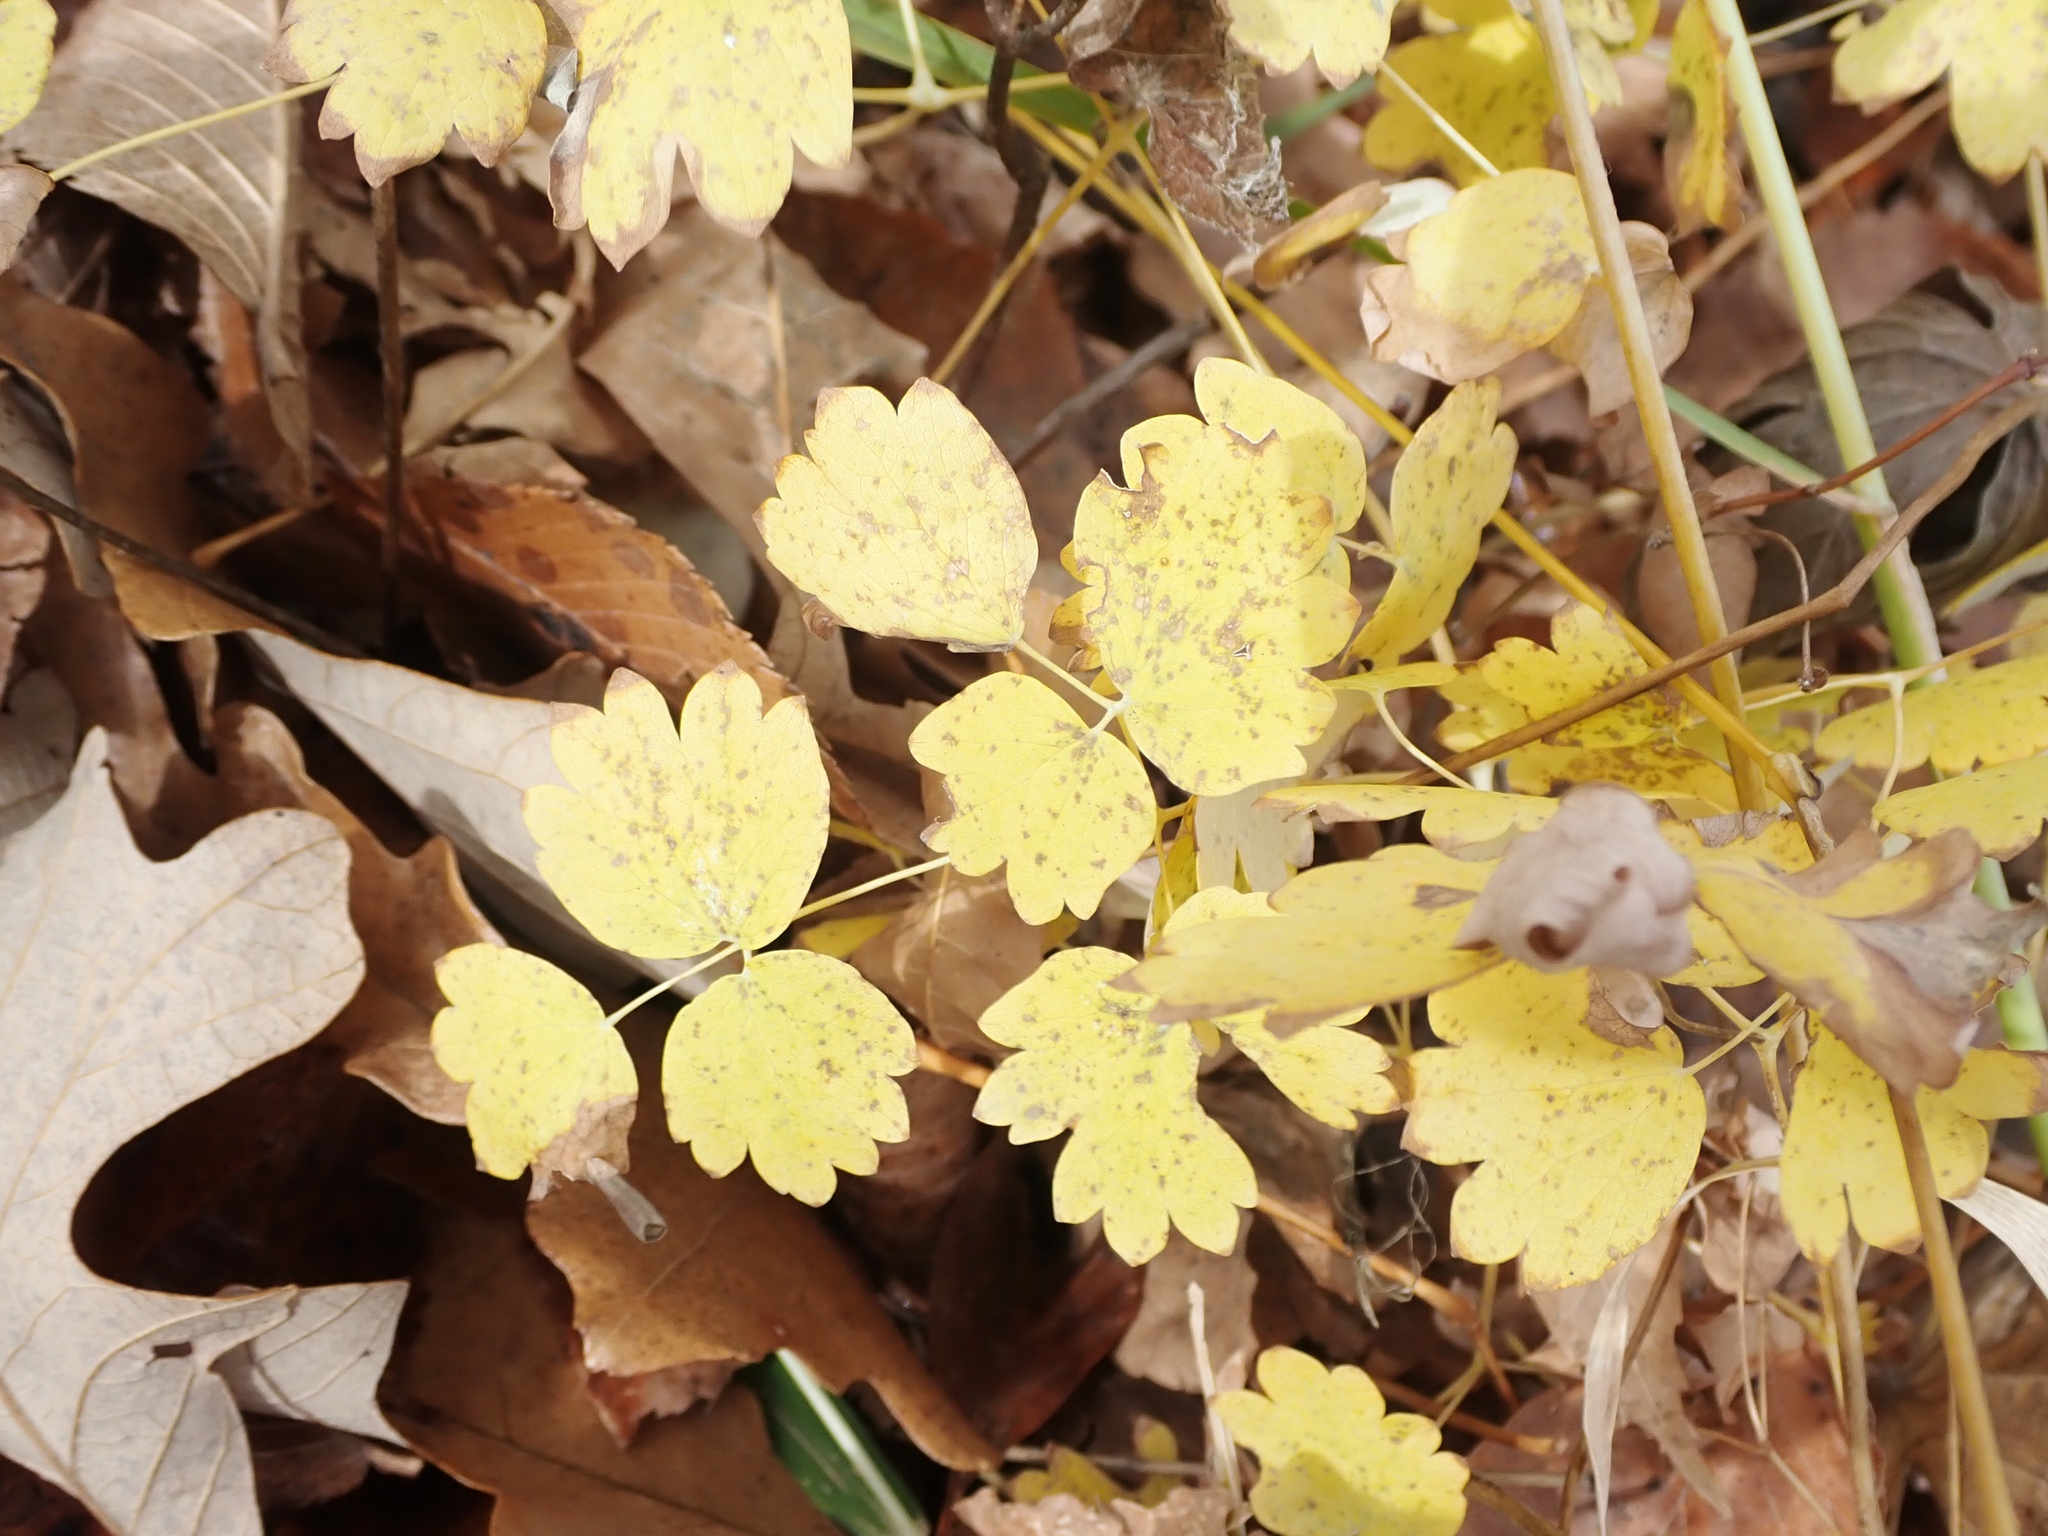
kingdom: Plantae
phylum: Tracheophyta
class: Magnoliopsida
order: Ranunculales
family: Ranunculaceae
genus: Thalictrum
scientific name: Thalictrum venulosum
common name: Early meadow-rue
